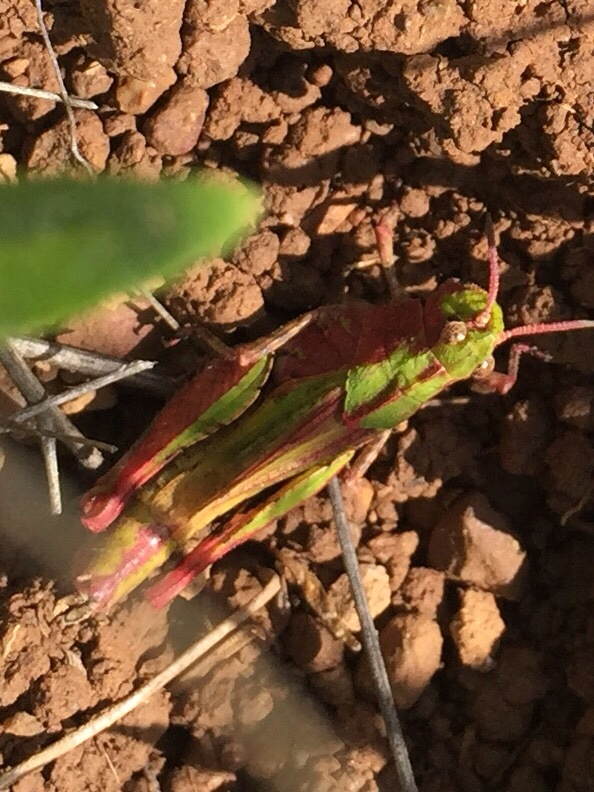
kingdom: Animalia
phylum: Arthropoda
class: Insecta
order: Orthoptera
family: Acrididae
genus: Chimarocephala
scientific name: Chimarocephala pacifica
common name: Painted meadow grasshopper
